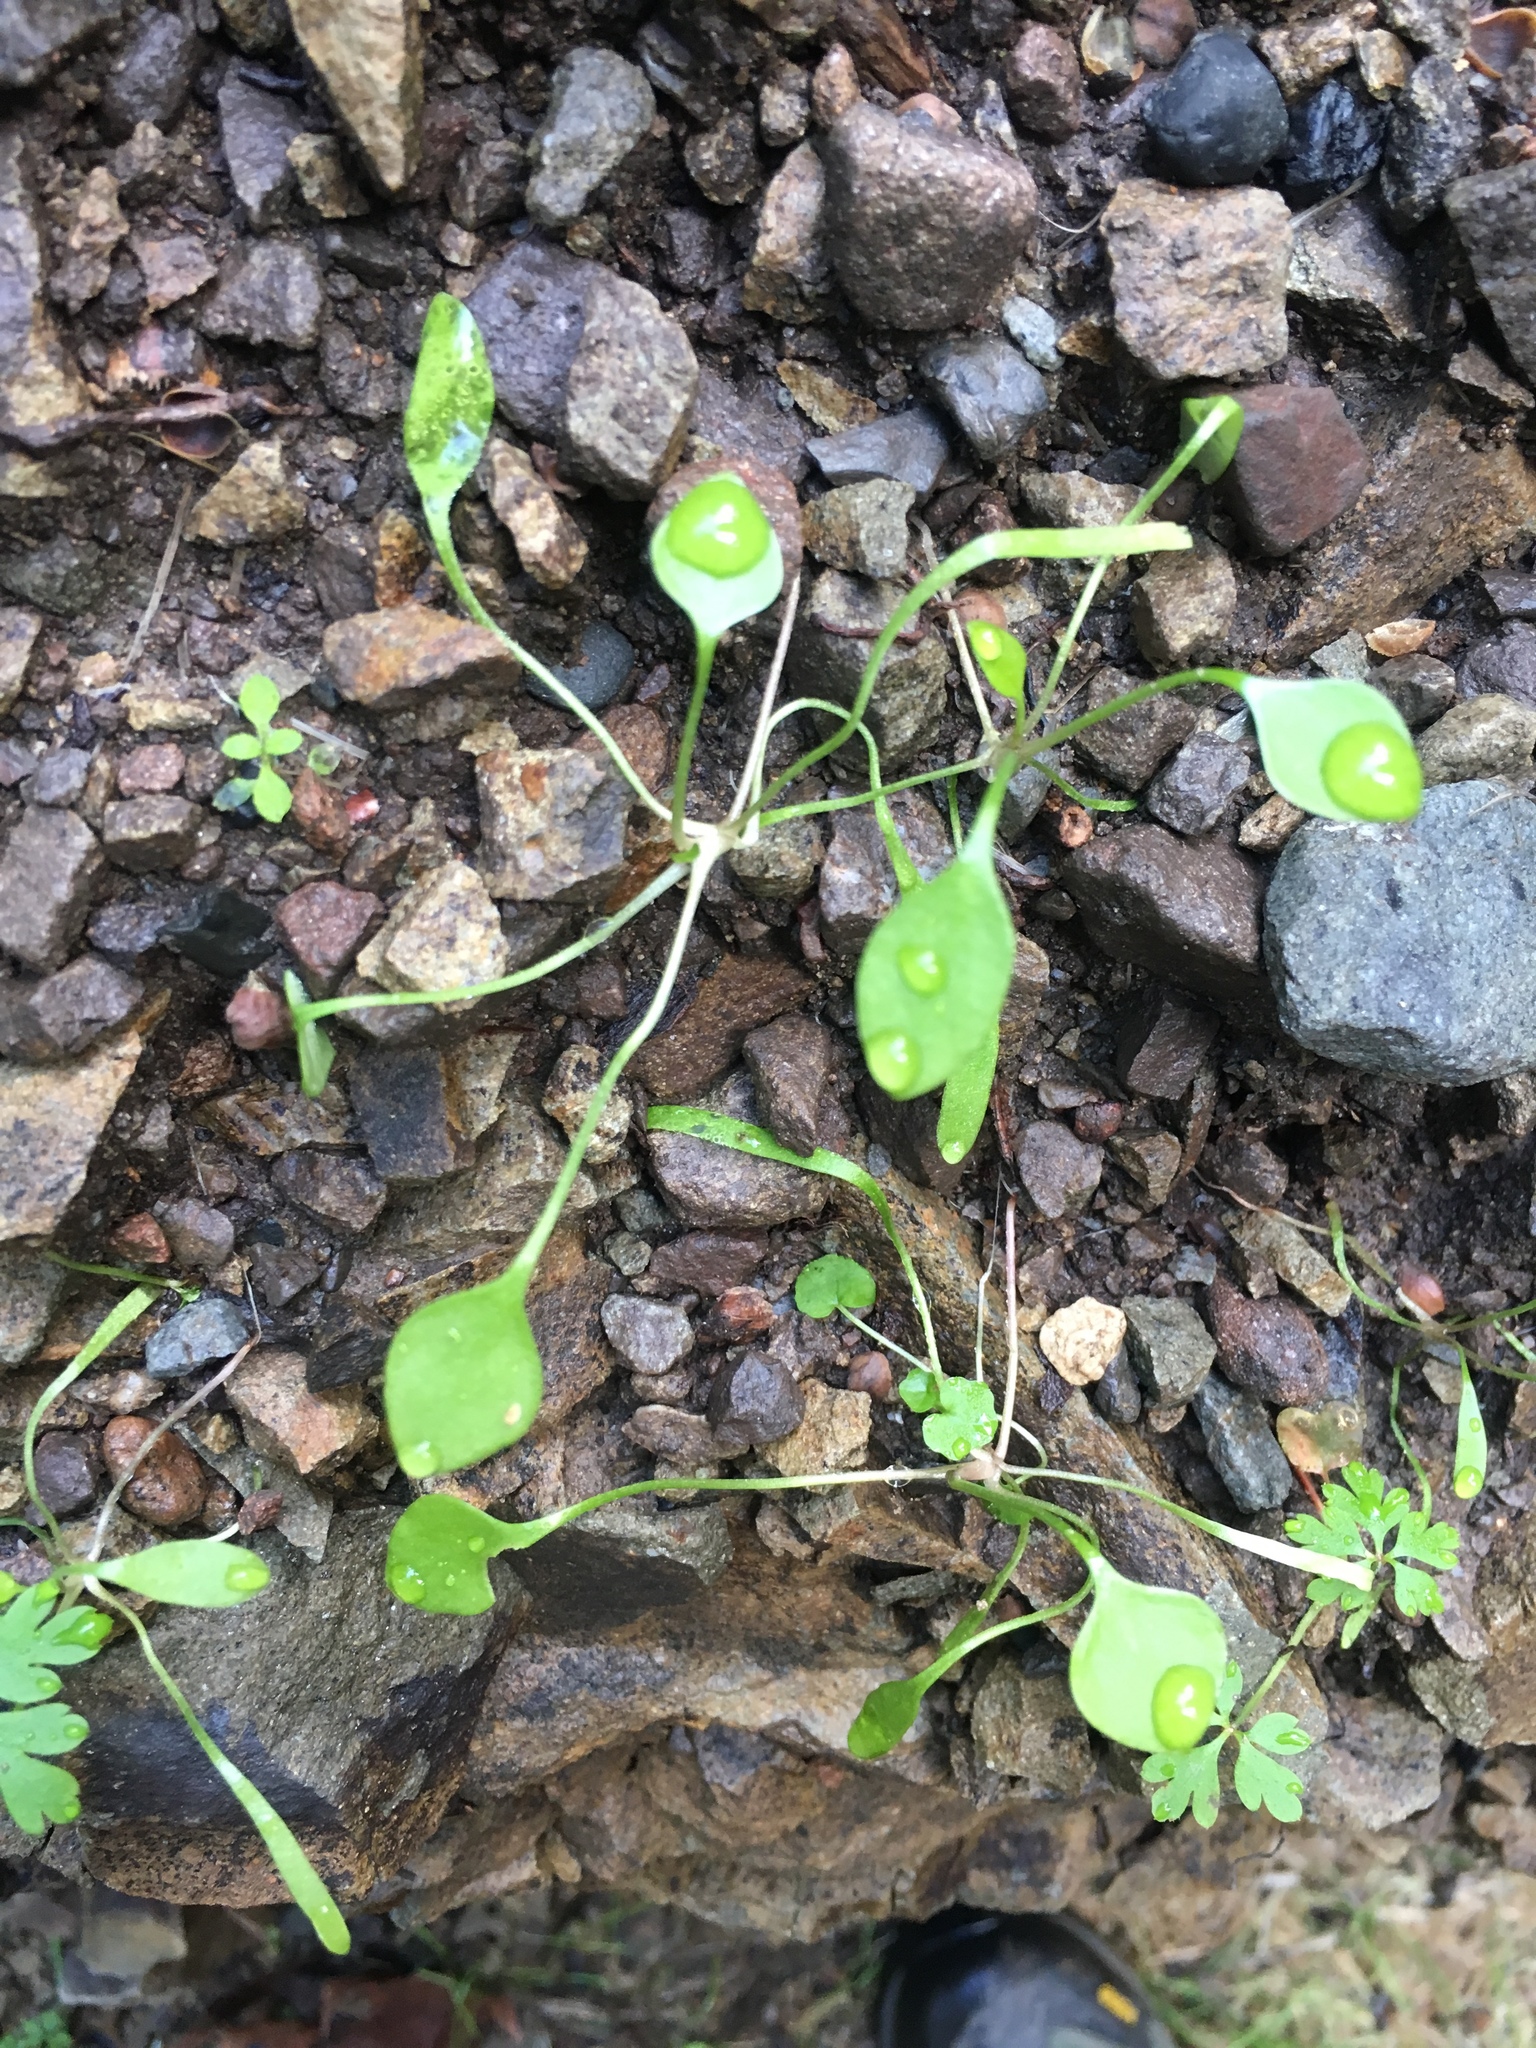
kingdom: Plantae
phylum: Tracheophyta
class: Magnoliopsida
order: Caryophyllales
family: Montiaceae
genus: Claytonia
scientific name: Claytonia perfoliata
